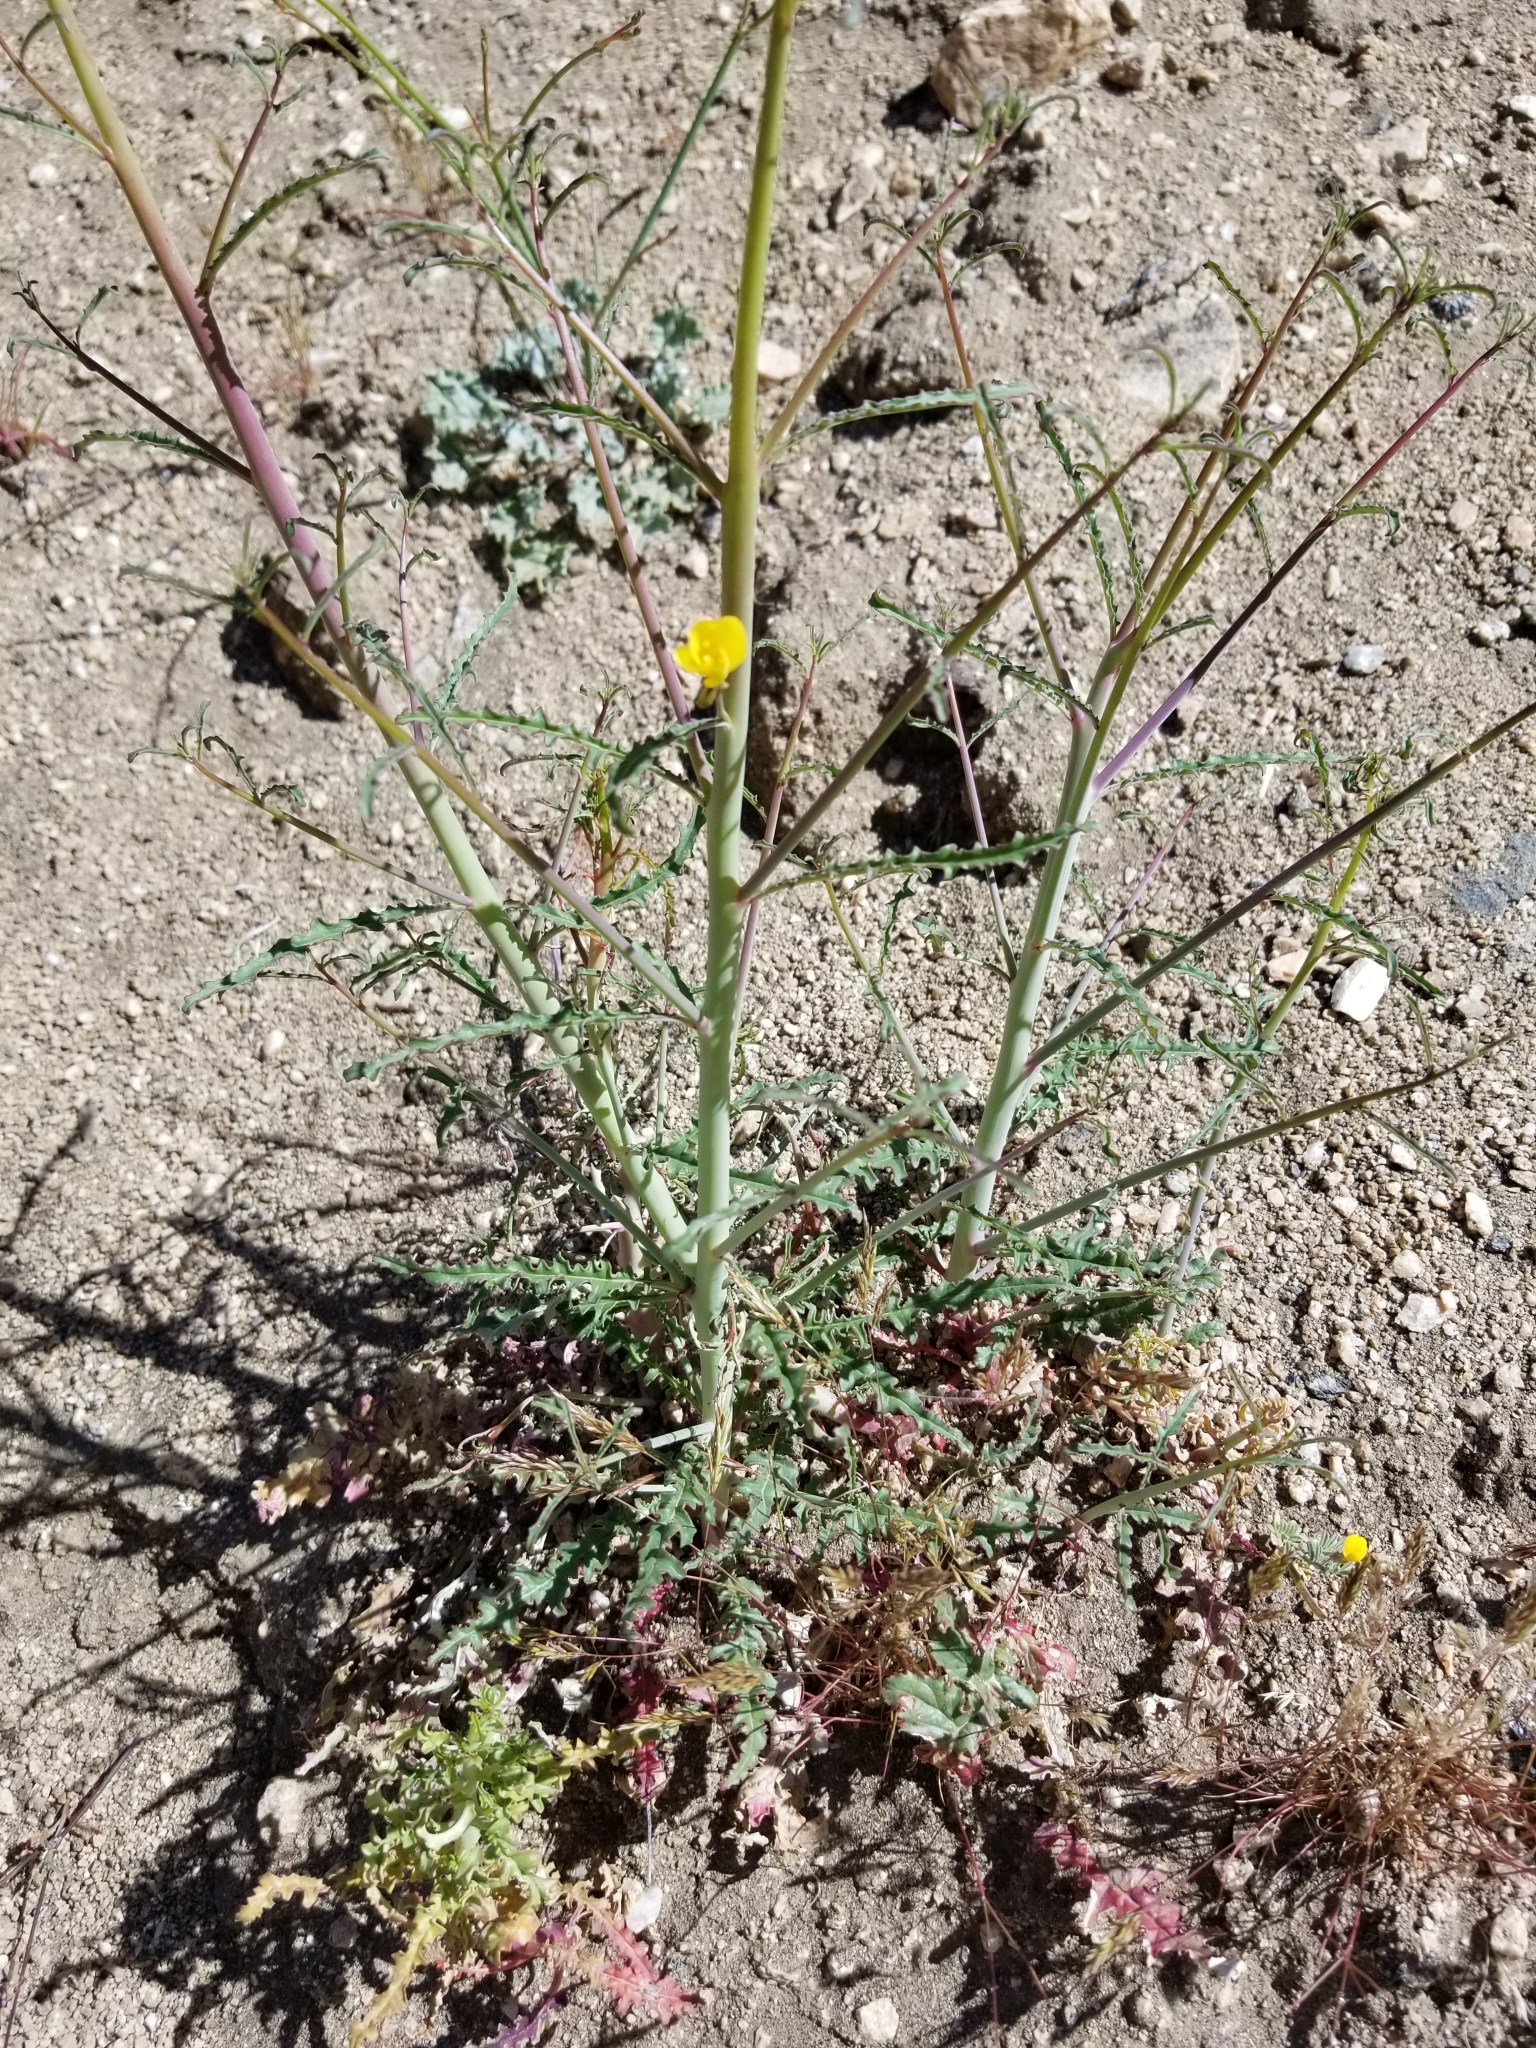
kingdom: Plantae
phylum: Tracheophyta
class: Magnoliopsida
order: Myrtales
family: Onagraceae
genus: Eulobus
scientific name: Eulobus californicus
